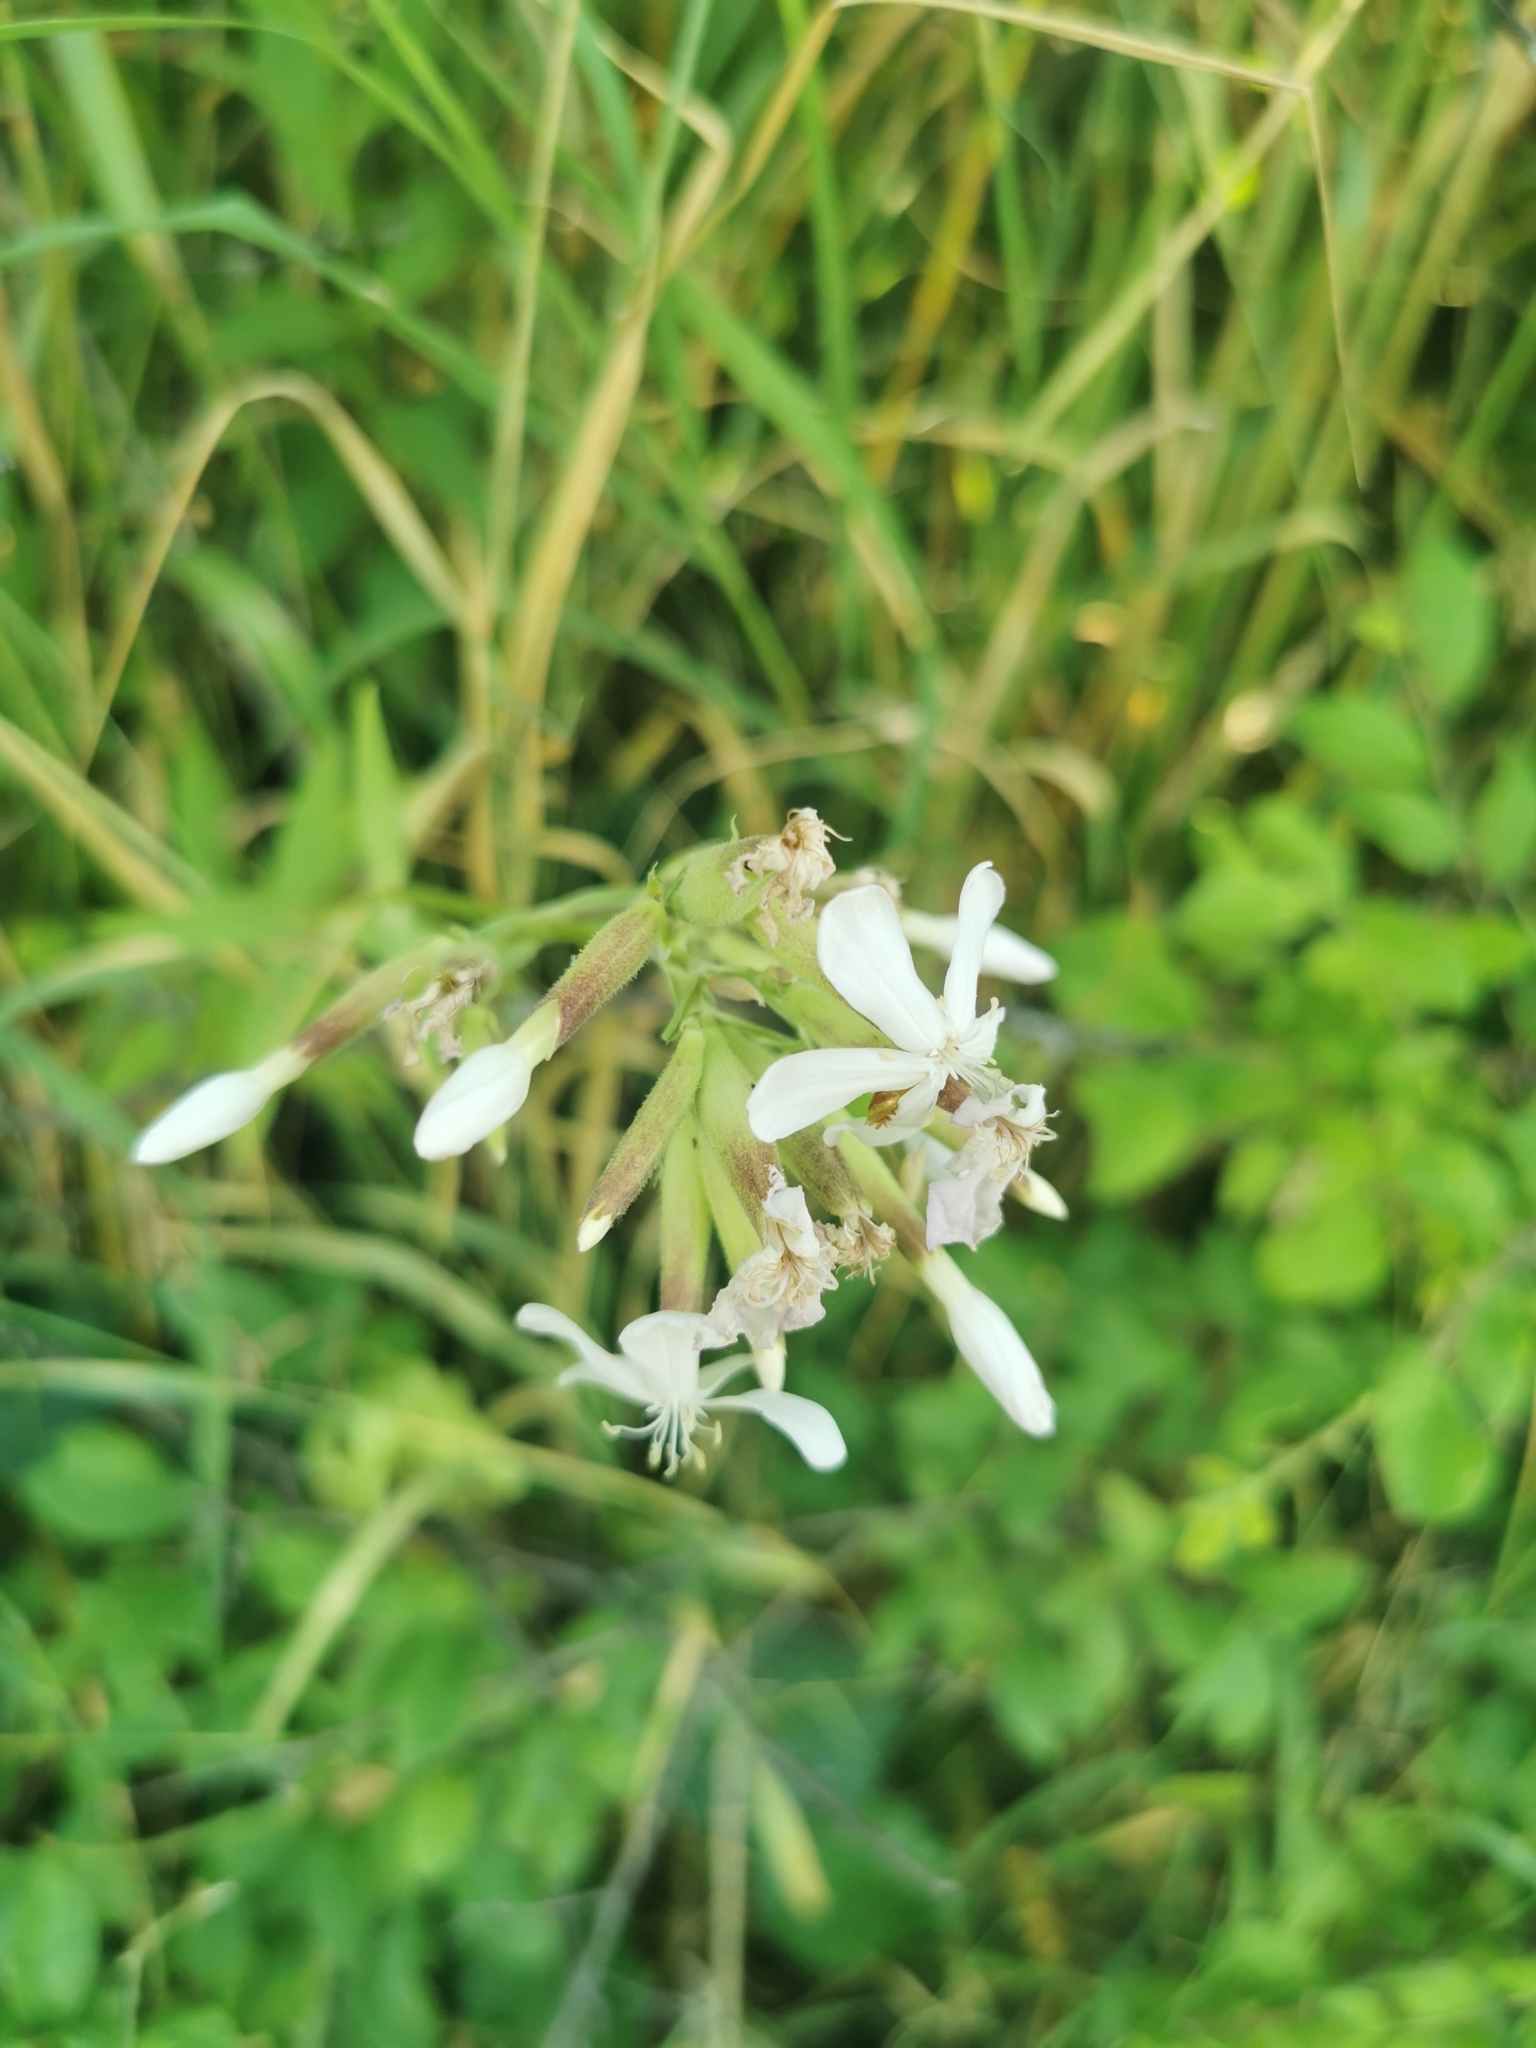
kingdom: Plantae
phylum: Tracheophyta
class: Magnoliopsida
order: Caryophyllales
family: Caryophyllaceae
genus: Saponaria
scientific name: Saponaria officinalis
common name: Soapwort
